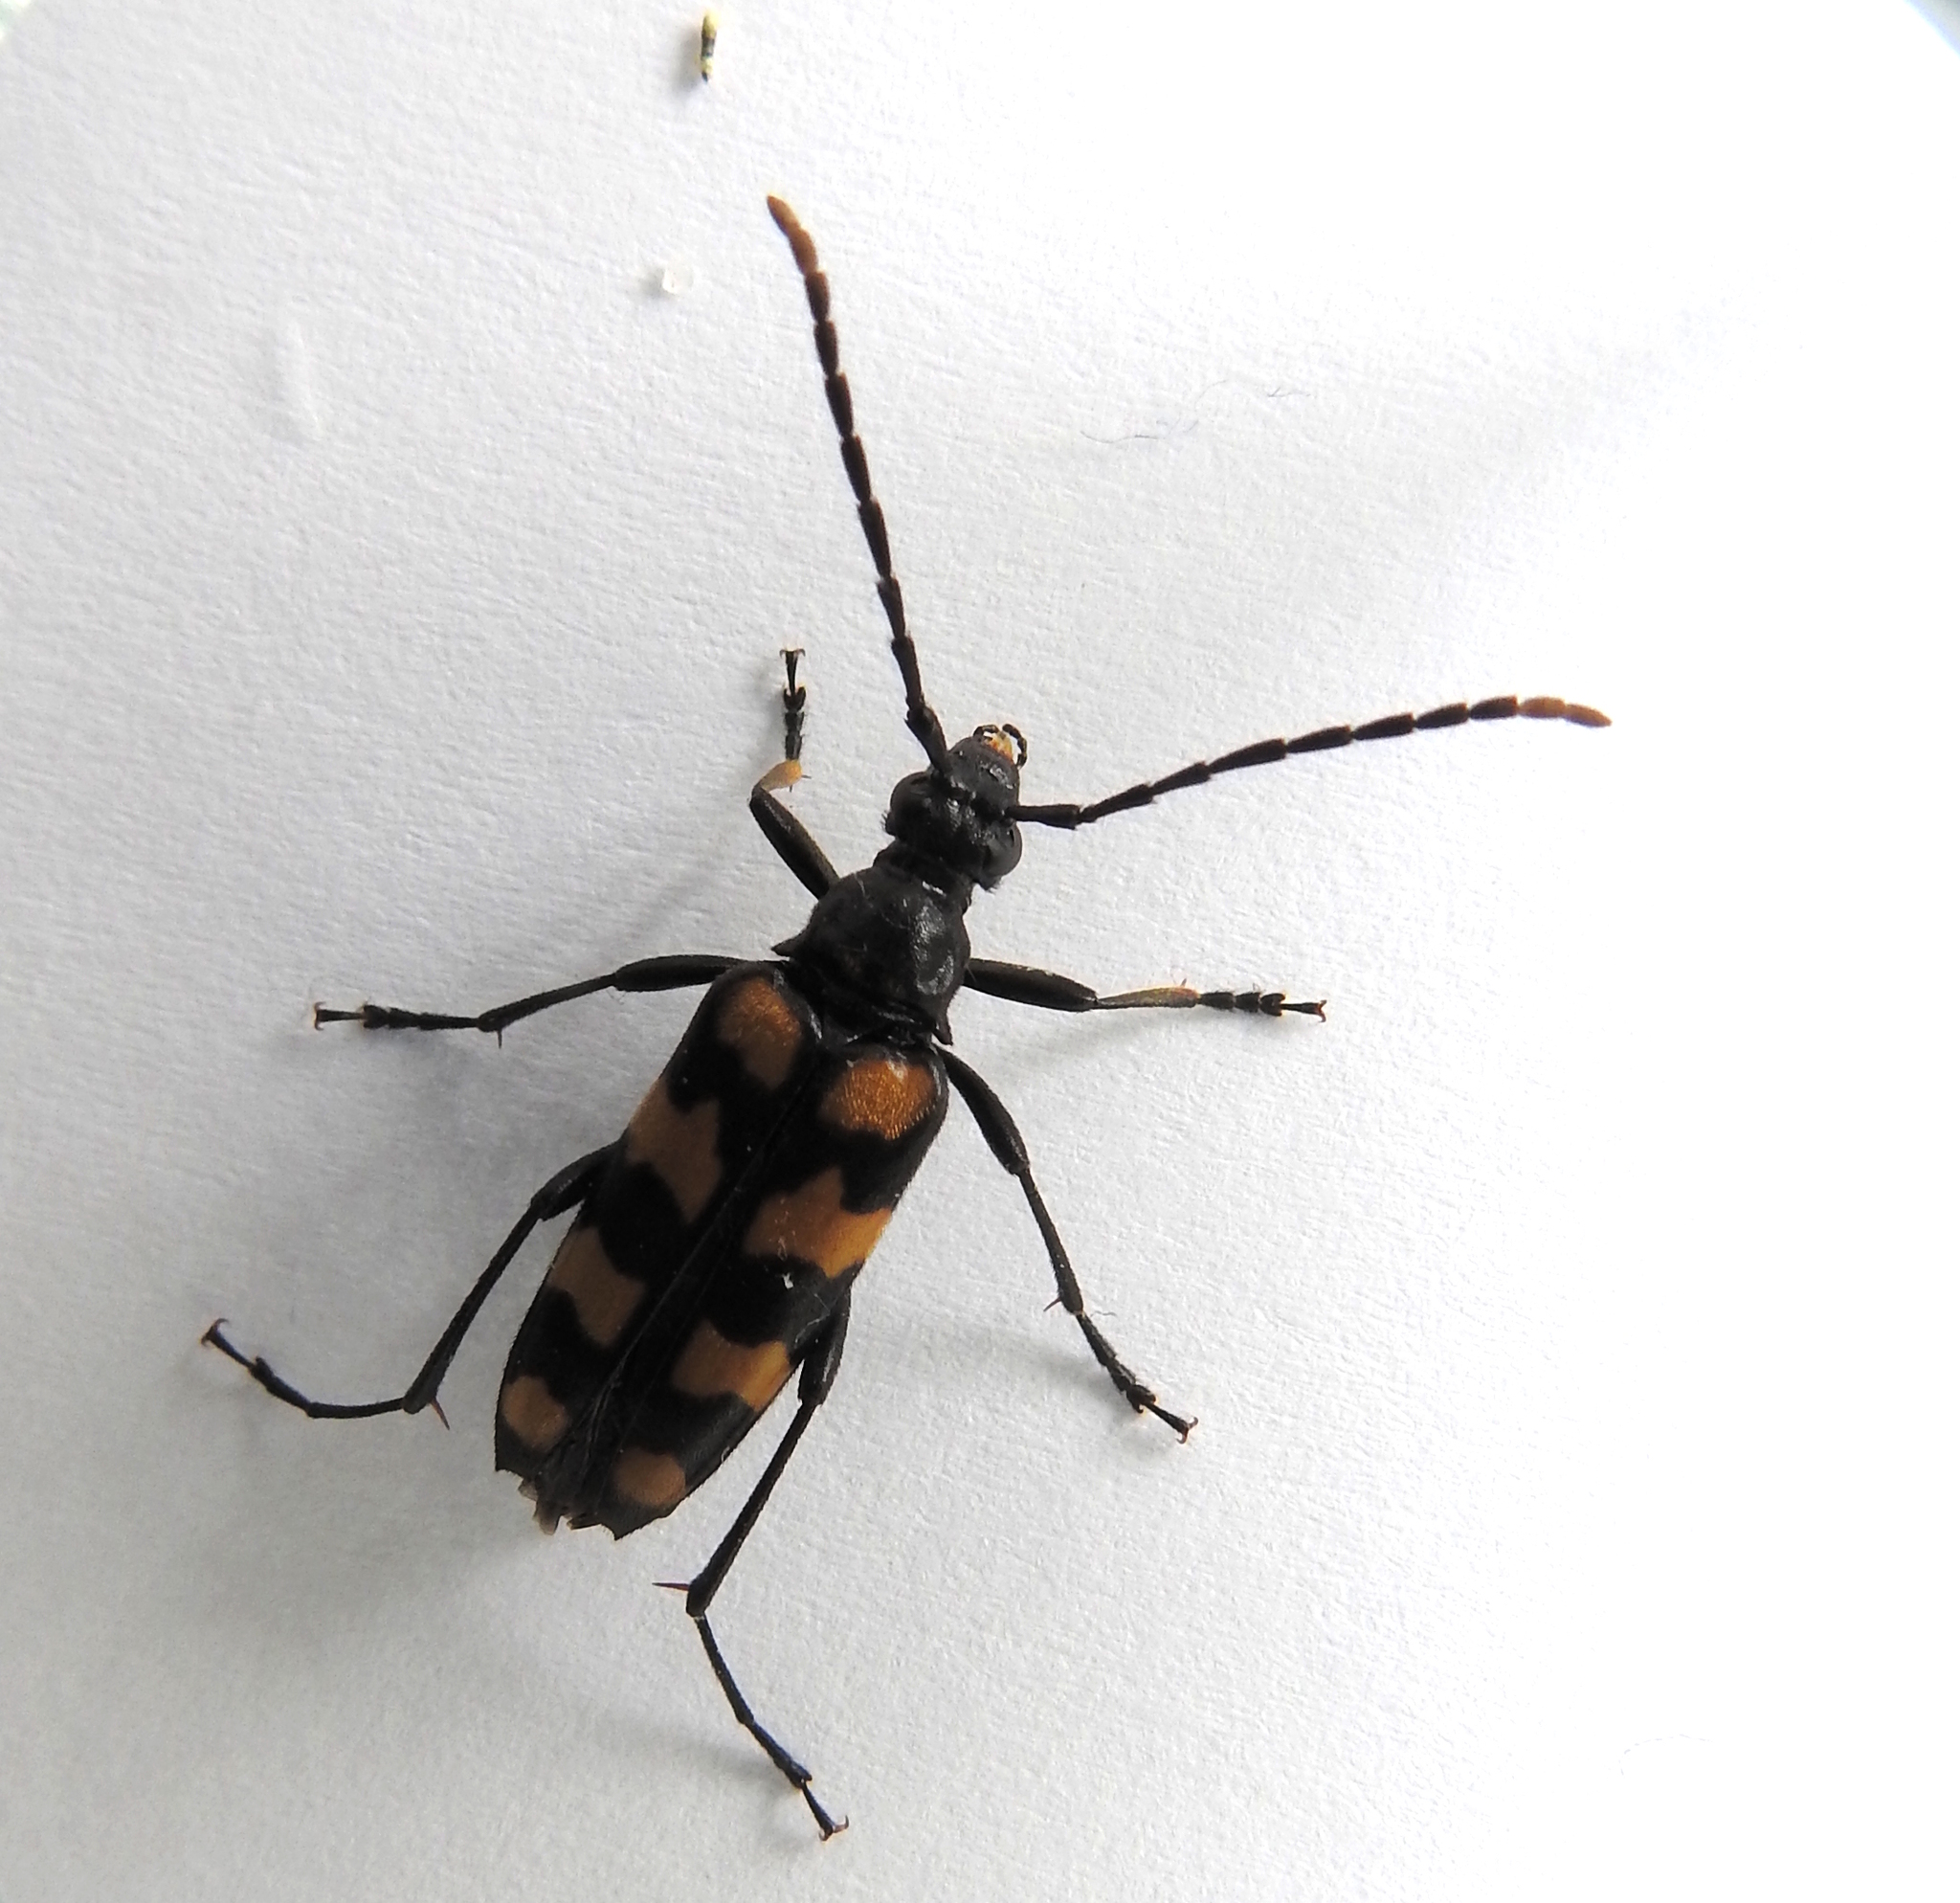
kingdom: Animalia
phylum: Arthropoda
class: Insecta
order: Coleoptera
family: Cerambycidae
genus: Leptura
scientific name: Leptura quadrifasciata
